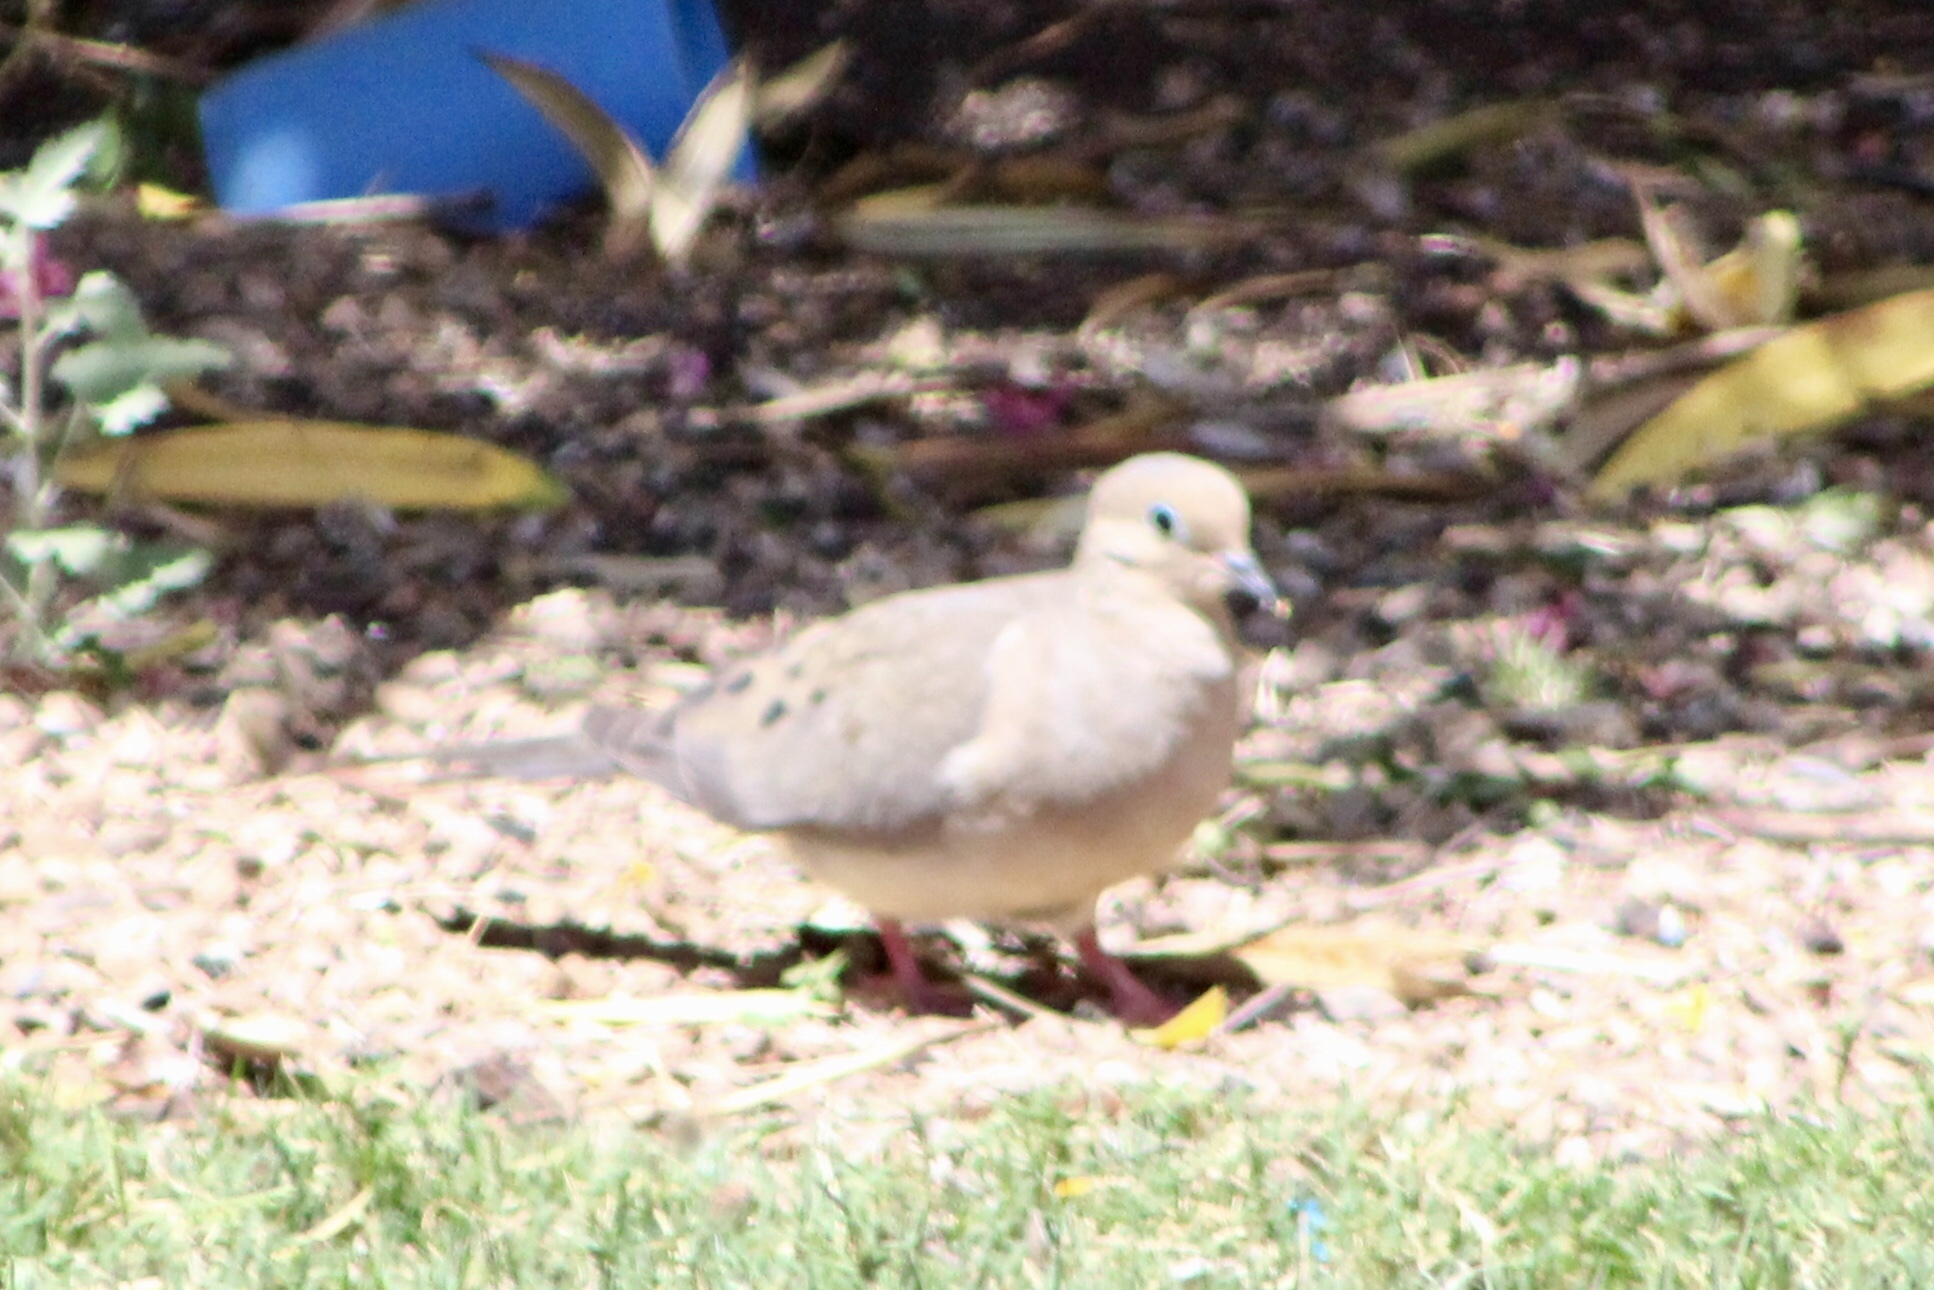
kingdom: Animalia
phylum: Chordata
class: Aves
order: Columbiformes
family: Columbidae
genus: Zenaida
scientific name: Zenaida macroura
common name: Mourning dove
